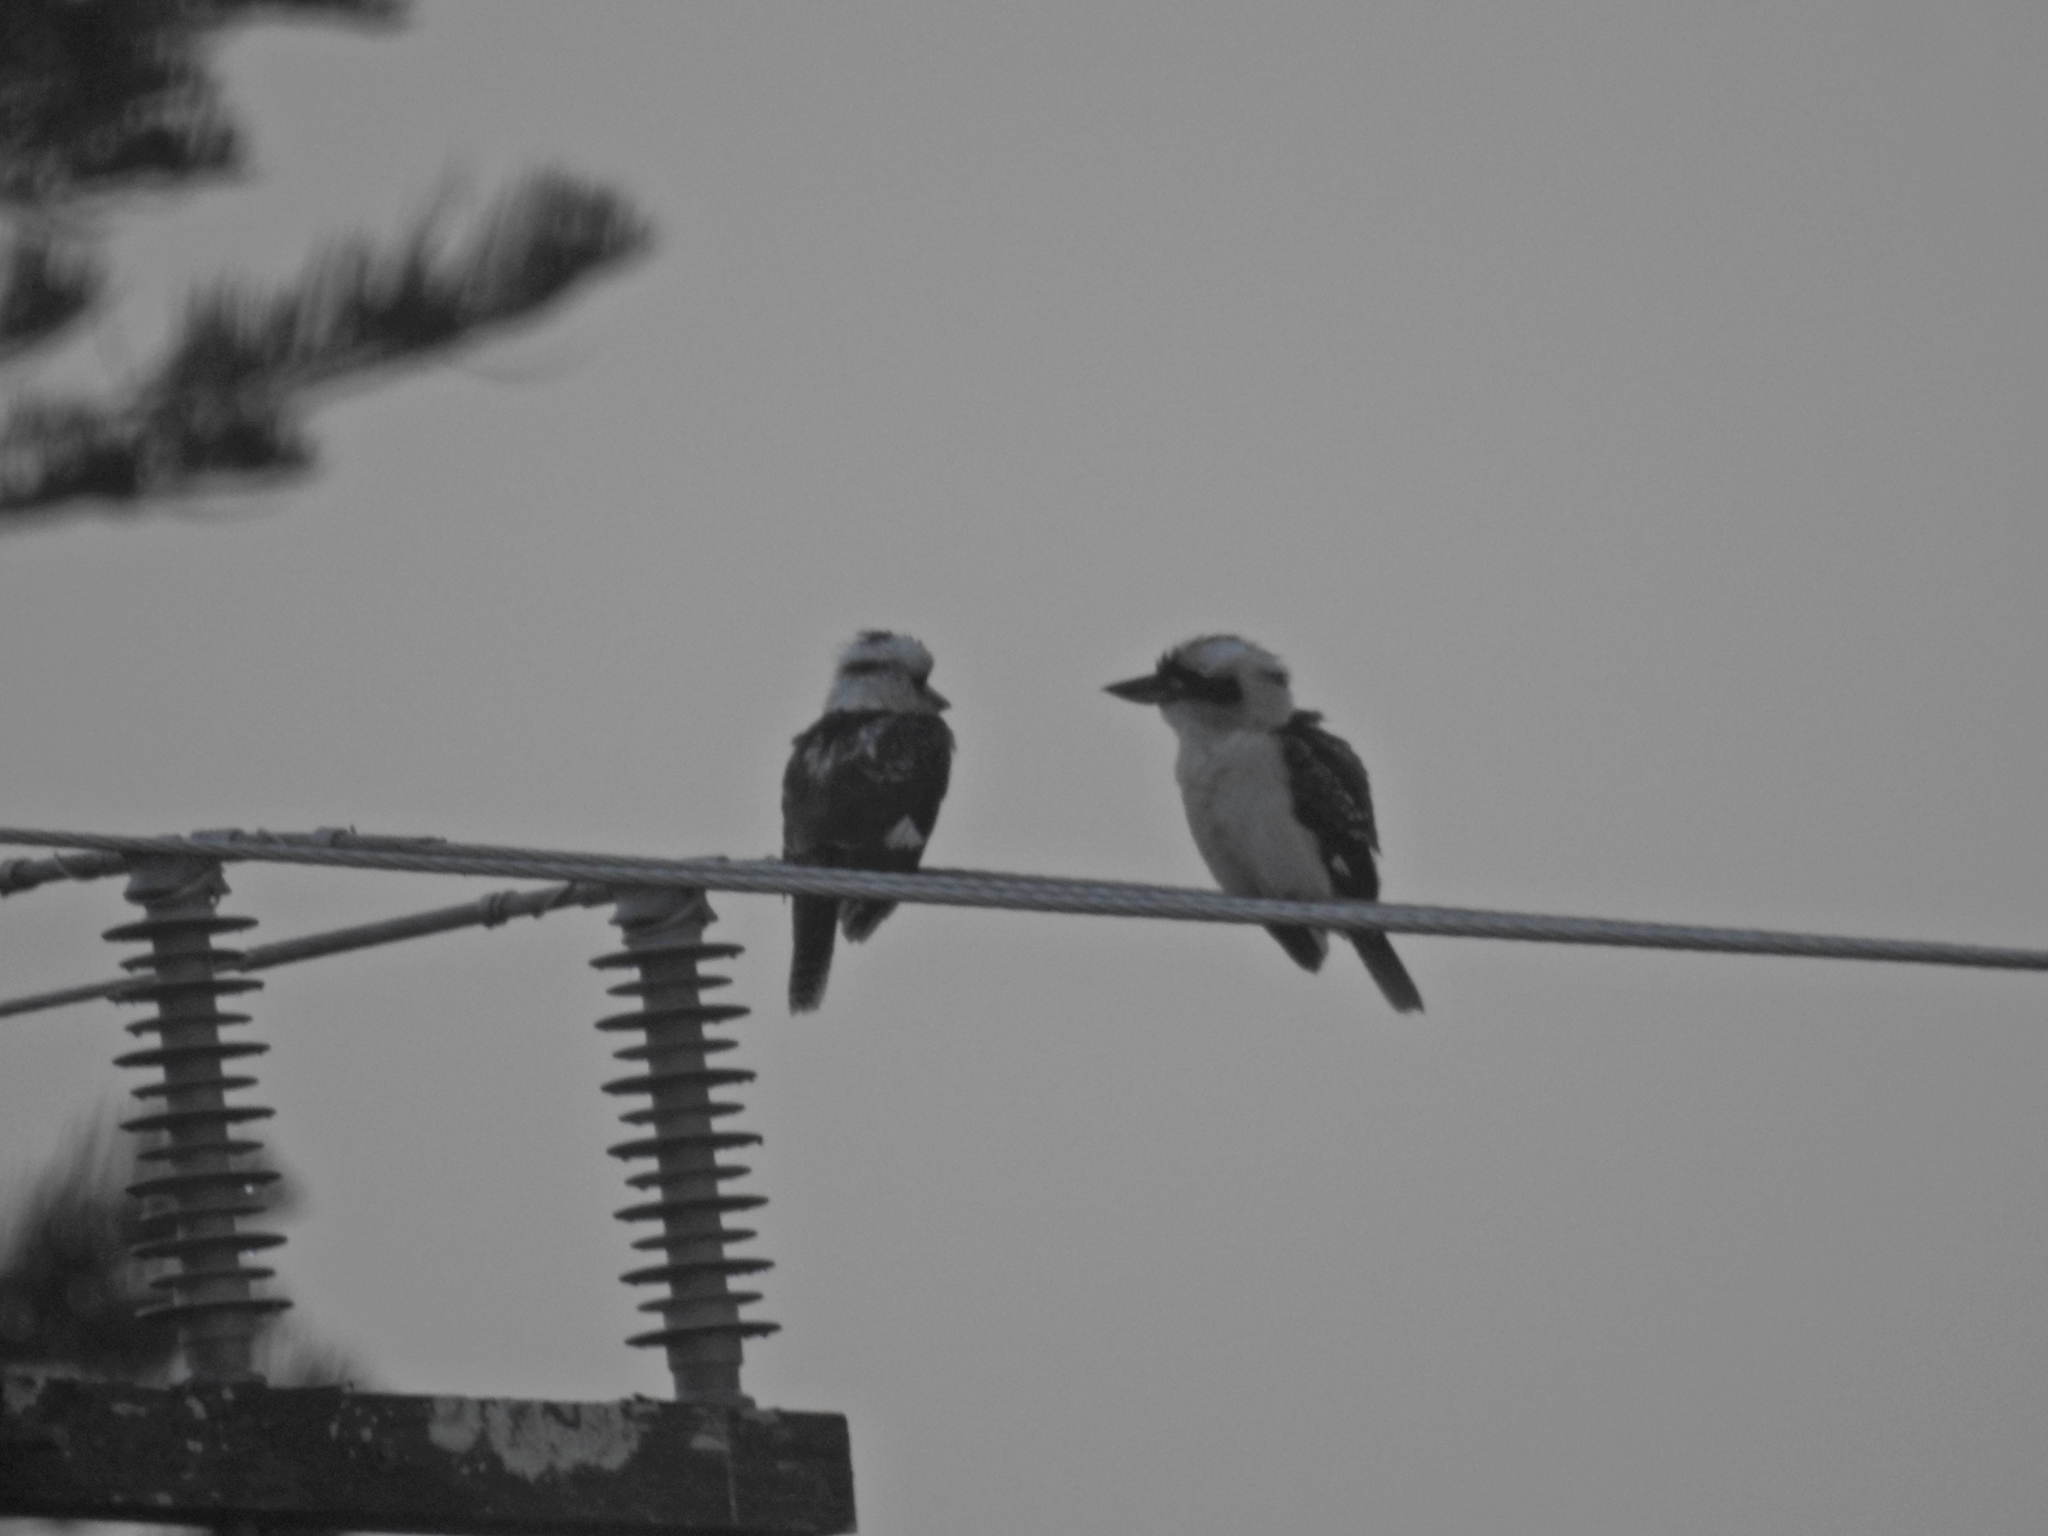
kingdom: Animalia
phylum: Chordata
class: Aves
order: Coraciiformes
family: Alcedinidae
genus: Dacelo
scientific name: Dacelo novaeguineae
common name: Laughing kookaburra
